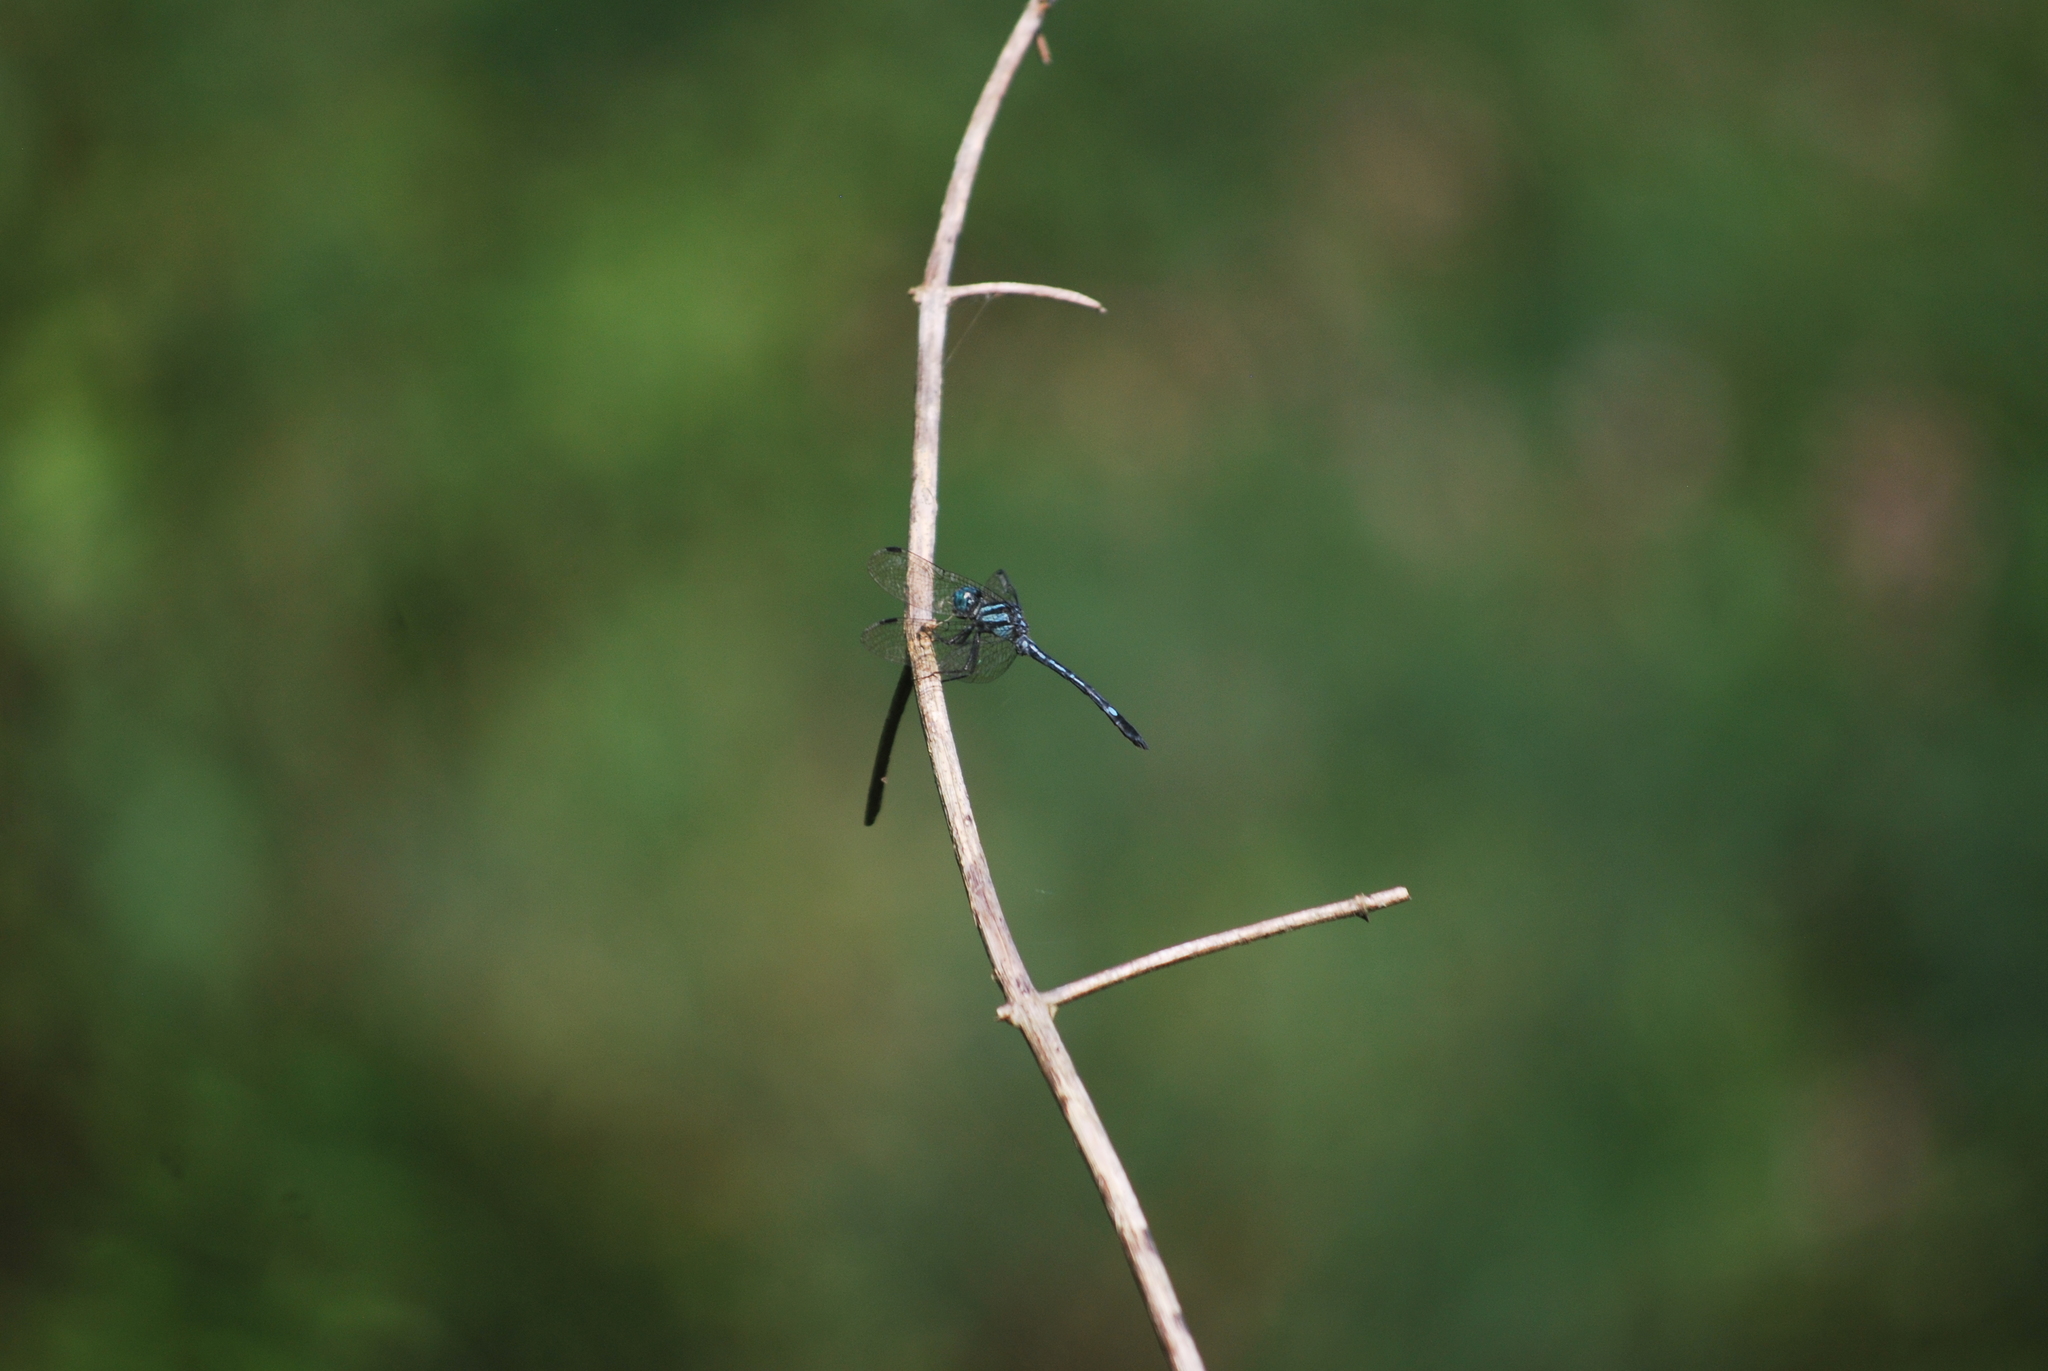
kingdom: Animalia
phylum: Arthropoda
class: Insecta
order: Odonata
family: Libellulidae
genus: Hylaeothemis
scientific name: Hylaeothemis apicalis
